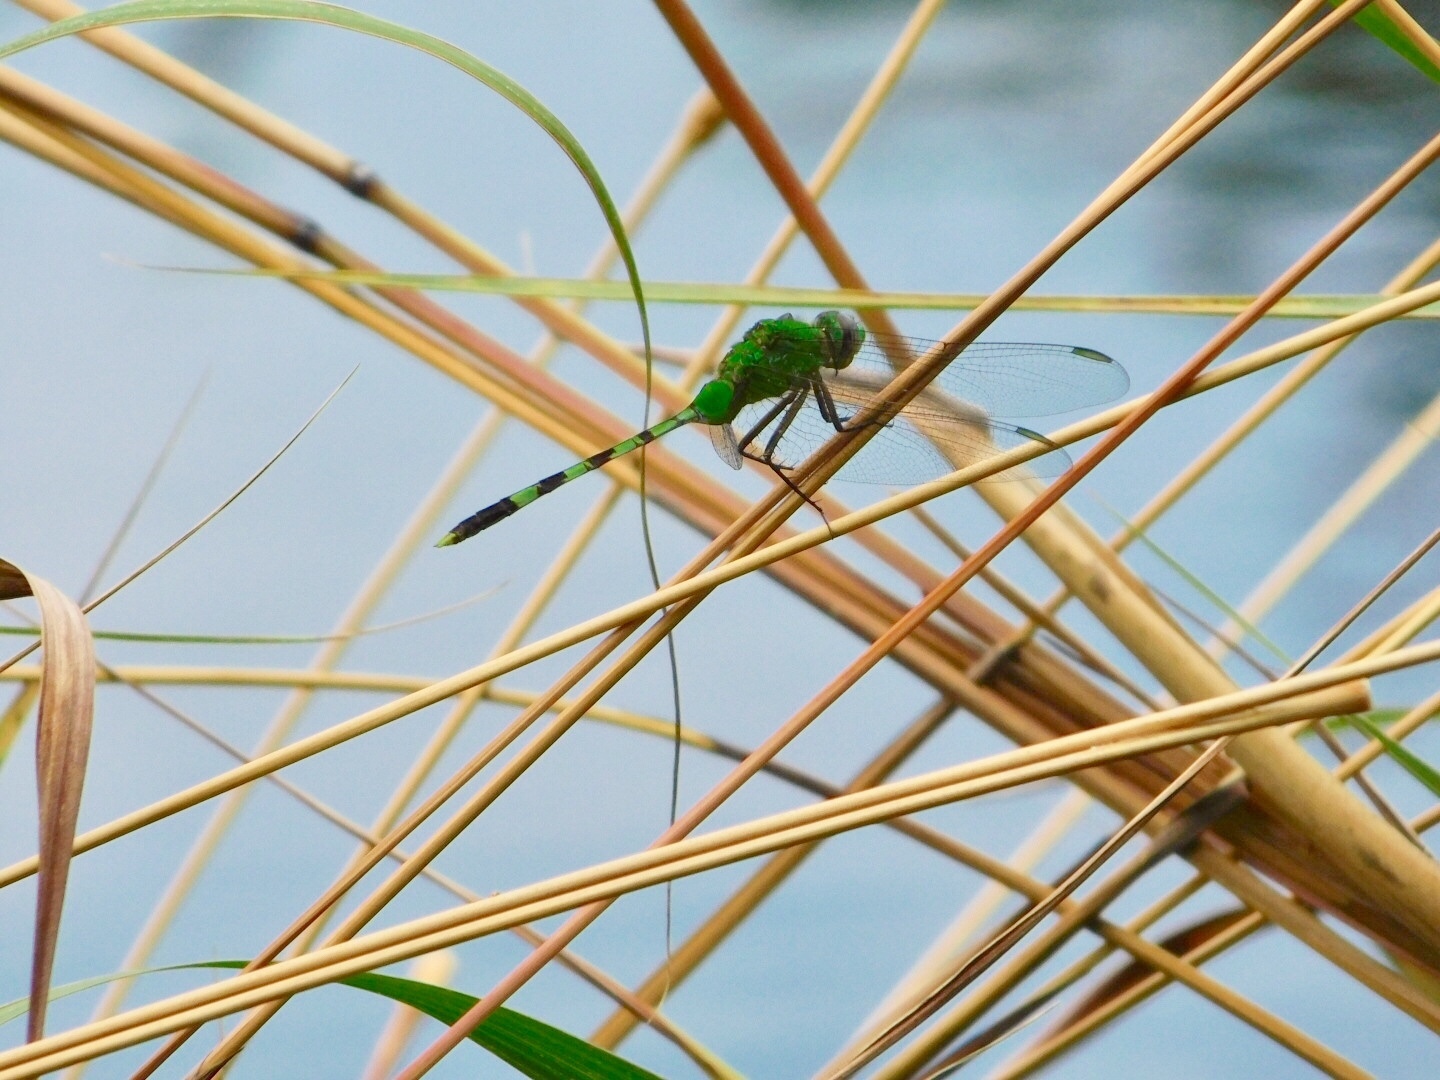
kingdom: Animalia
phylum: Arthropoda
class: Insecta
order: Odonata
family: Libellulidae
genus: Erythemis
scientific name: Erythemis vesiculosa
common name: Great pondhawk
